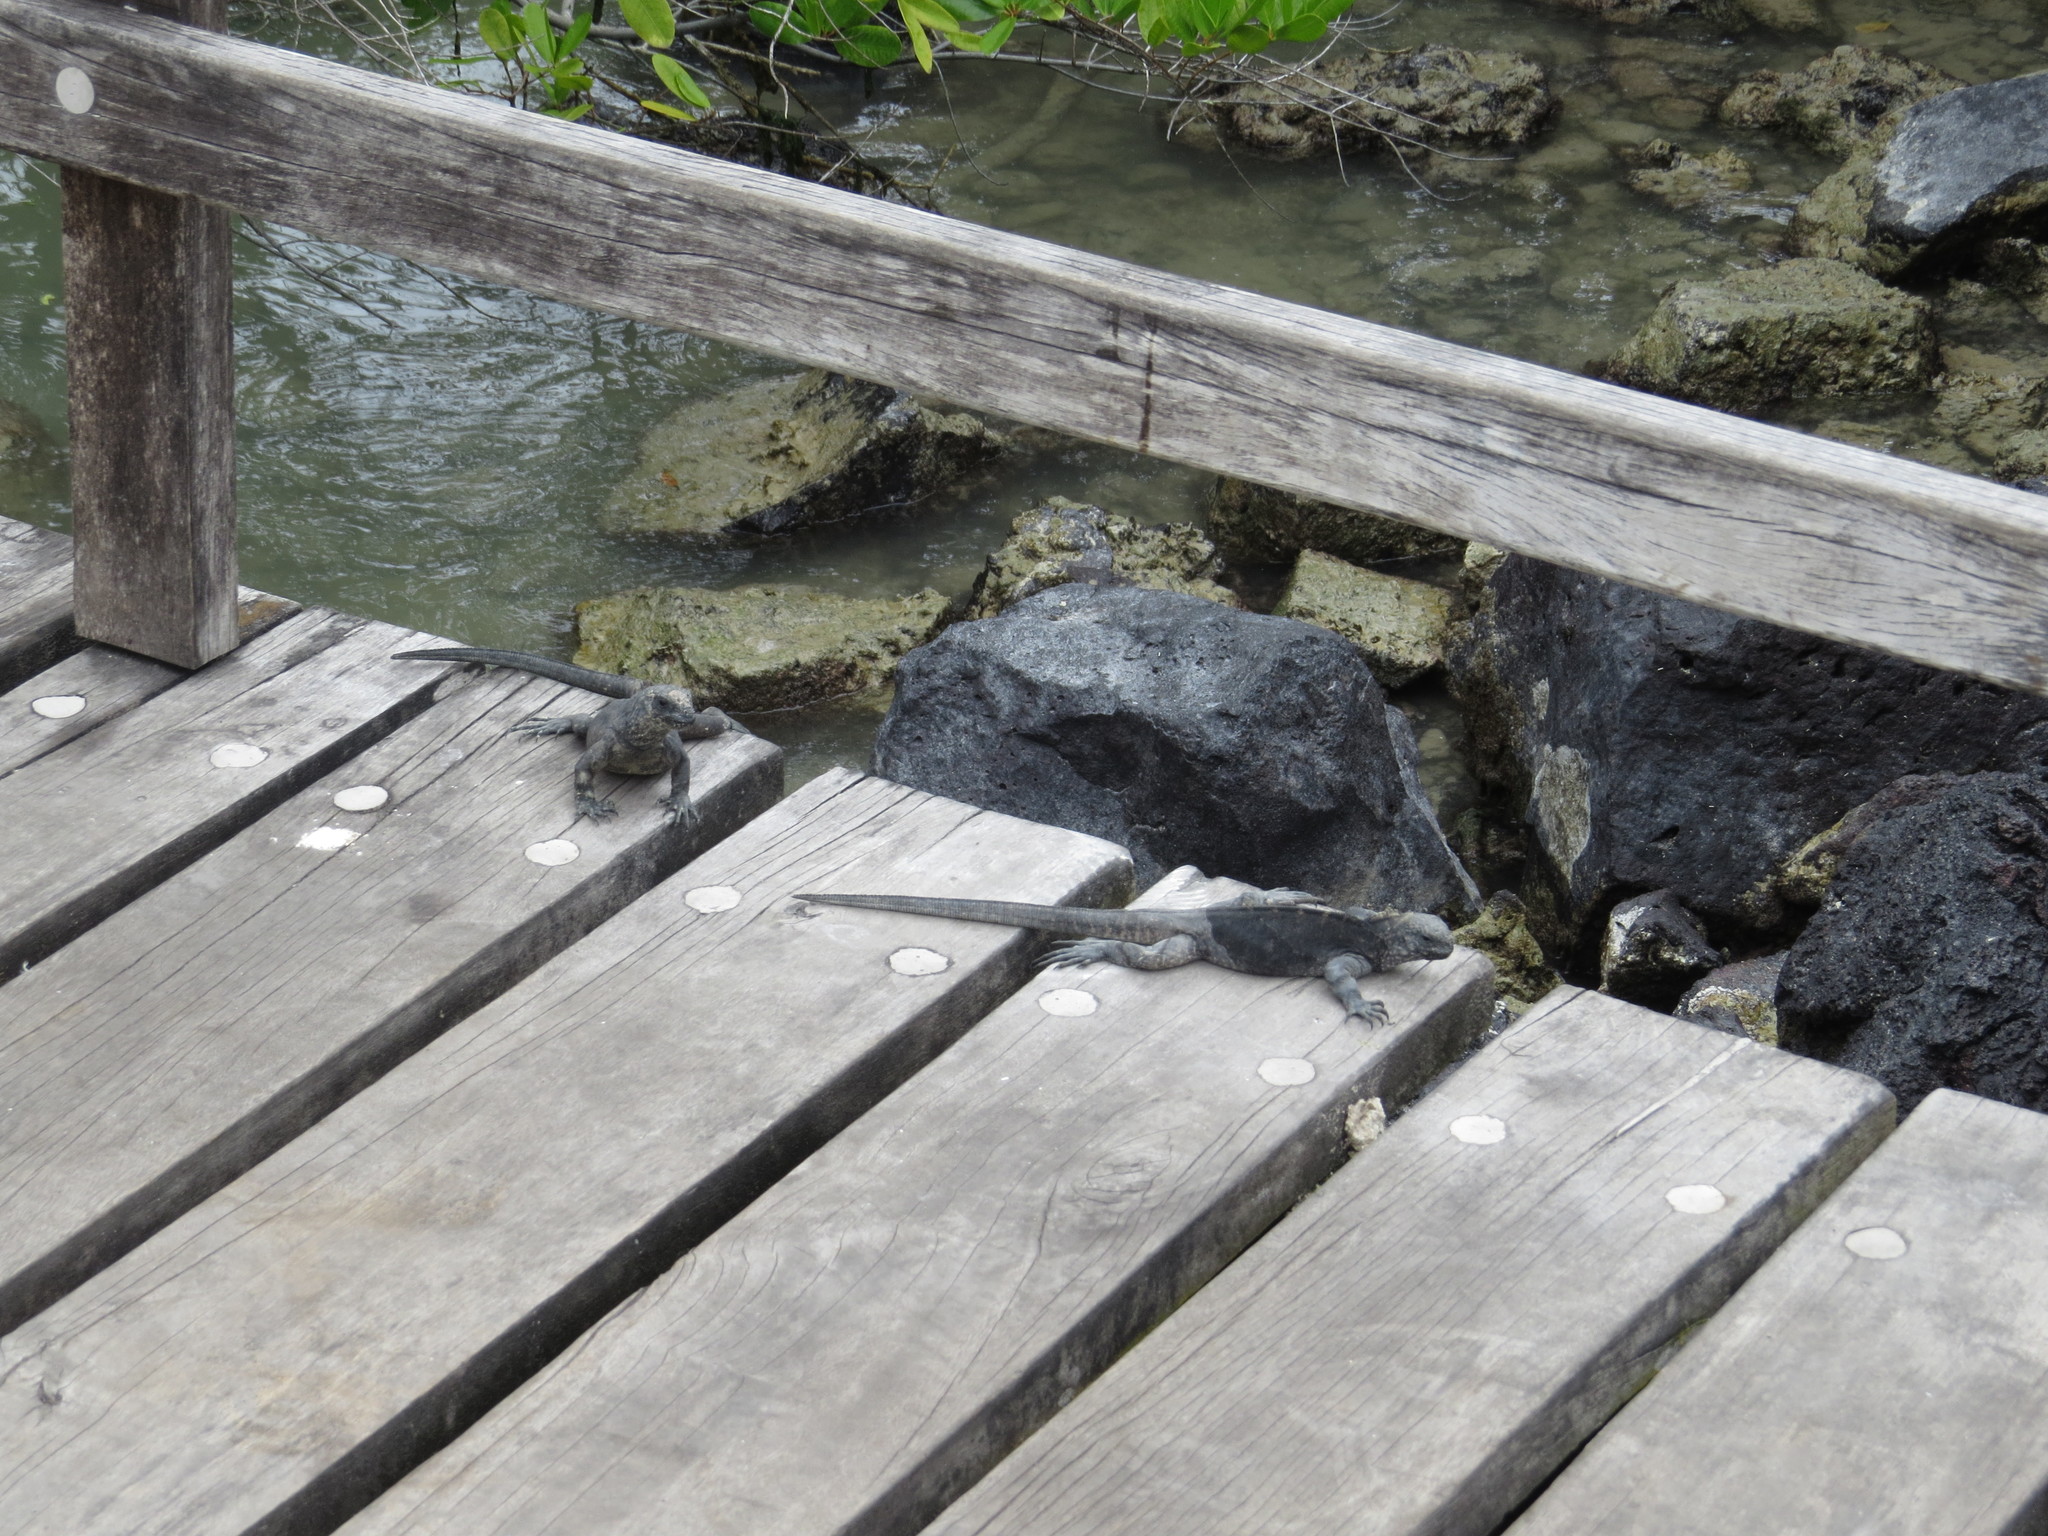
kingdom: Animalia
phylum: Chordata
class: Squamata
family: Iguanidae
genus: Amblyrhynchus
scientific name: Amblyrhynchus cristatus
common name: Marine iguana
